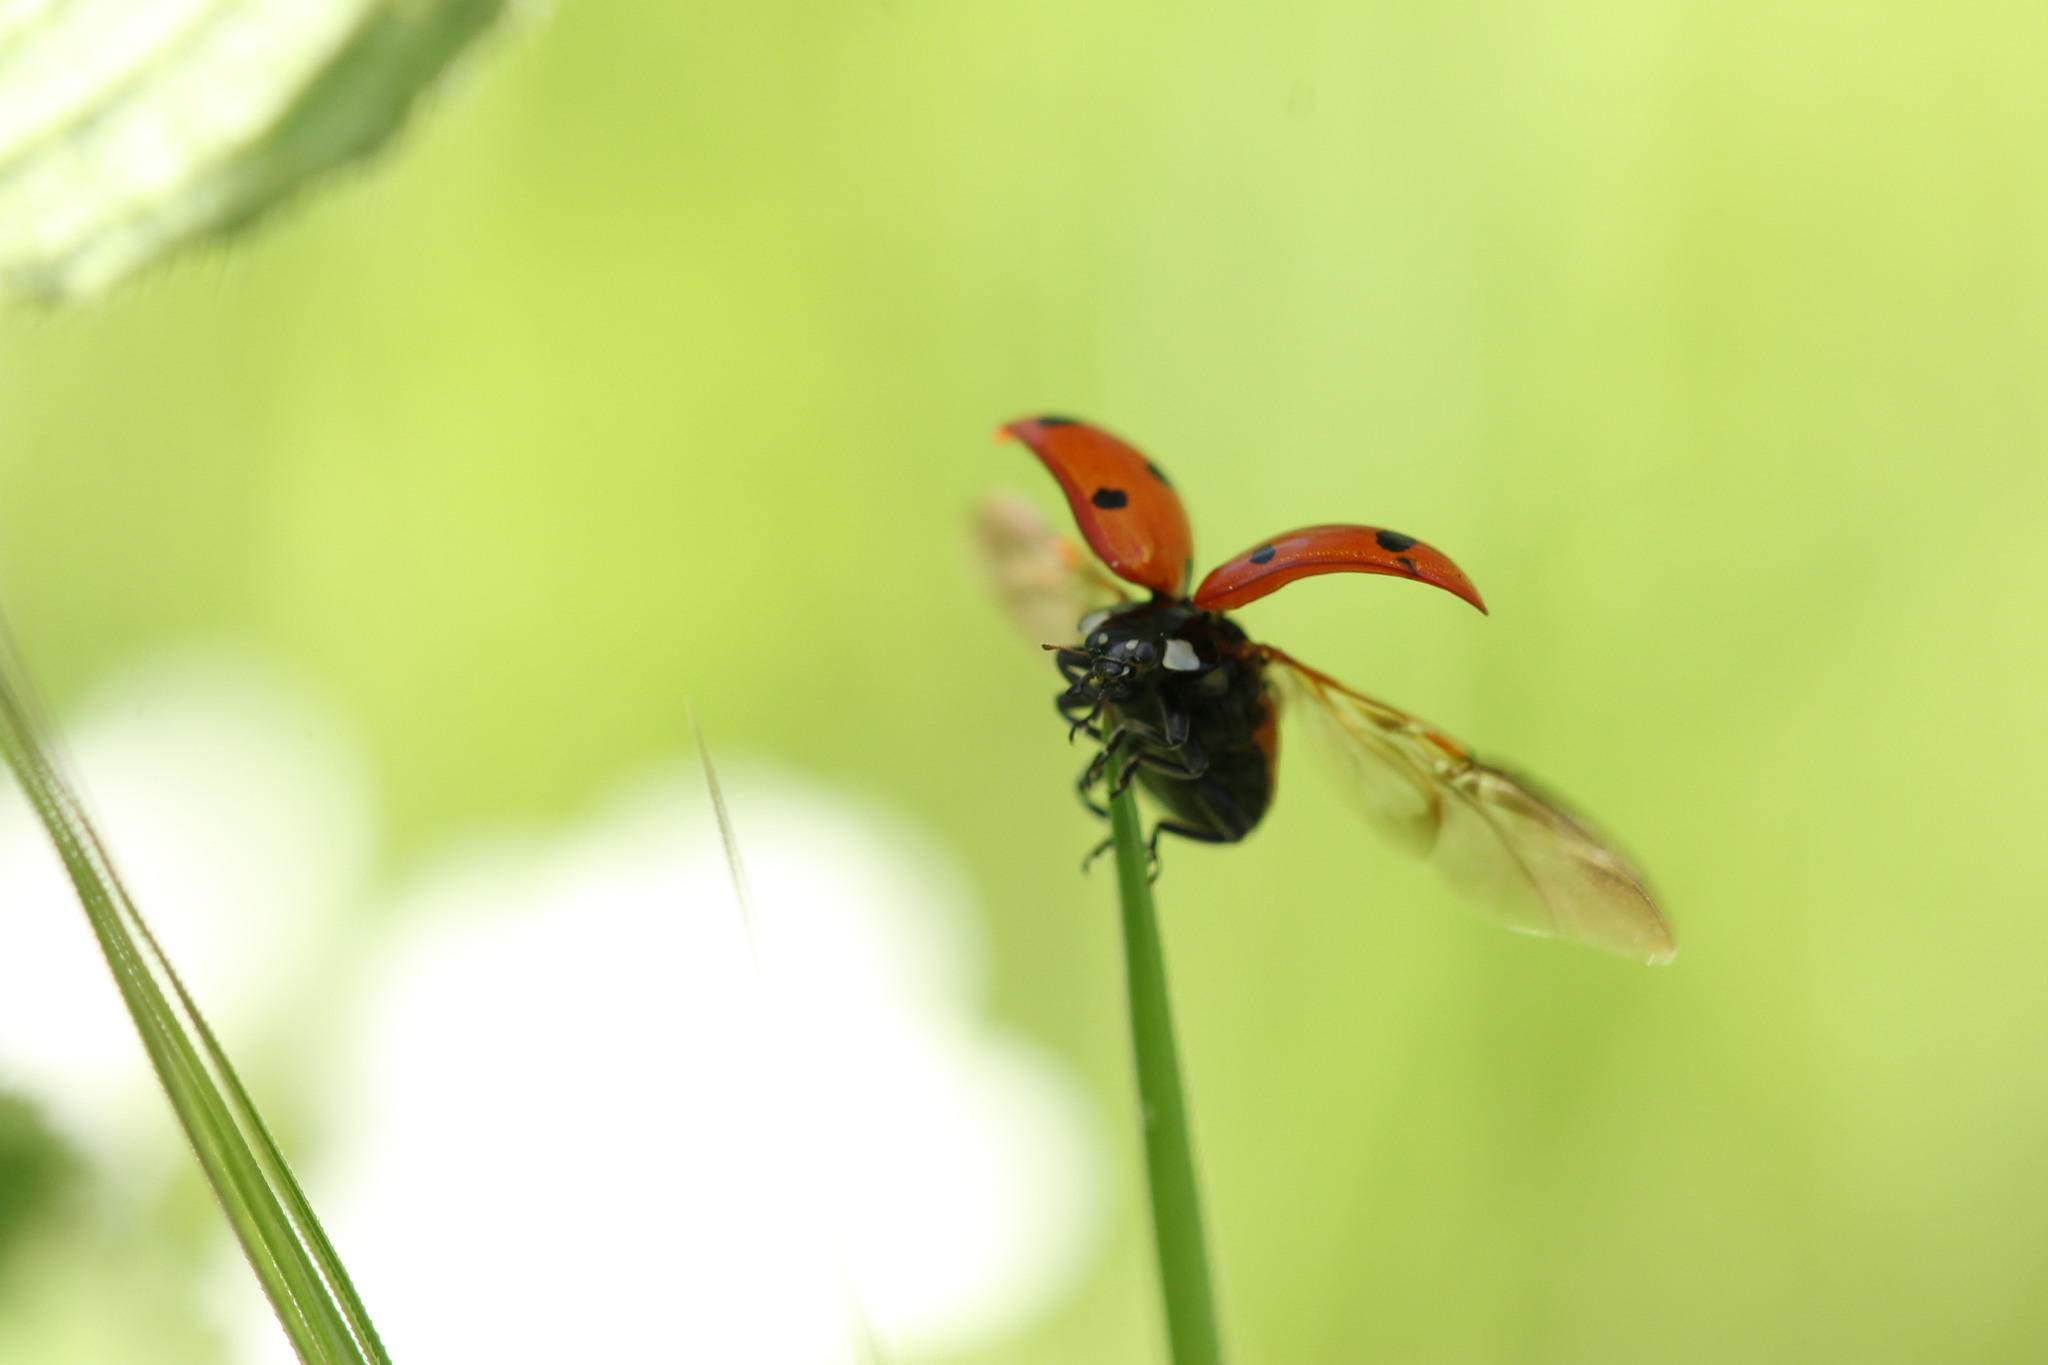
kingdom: Animalia
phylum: Arthropoda
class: Insecta
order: Coleoptera
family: Coccinellidae
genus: Coccinella
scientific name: Coccinella septempunctata
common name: Sevenspotted lady beetle
